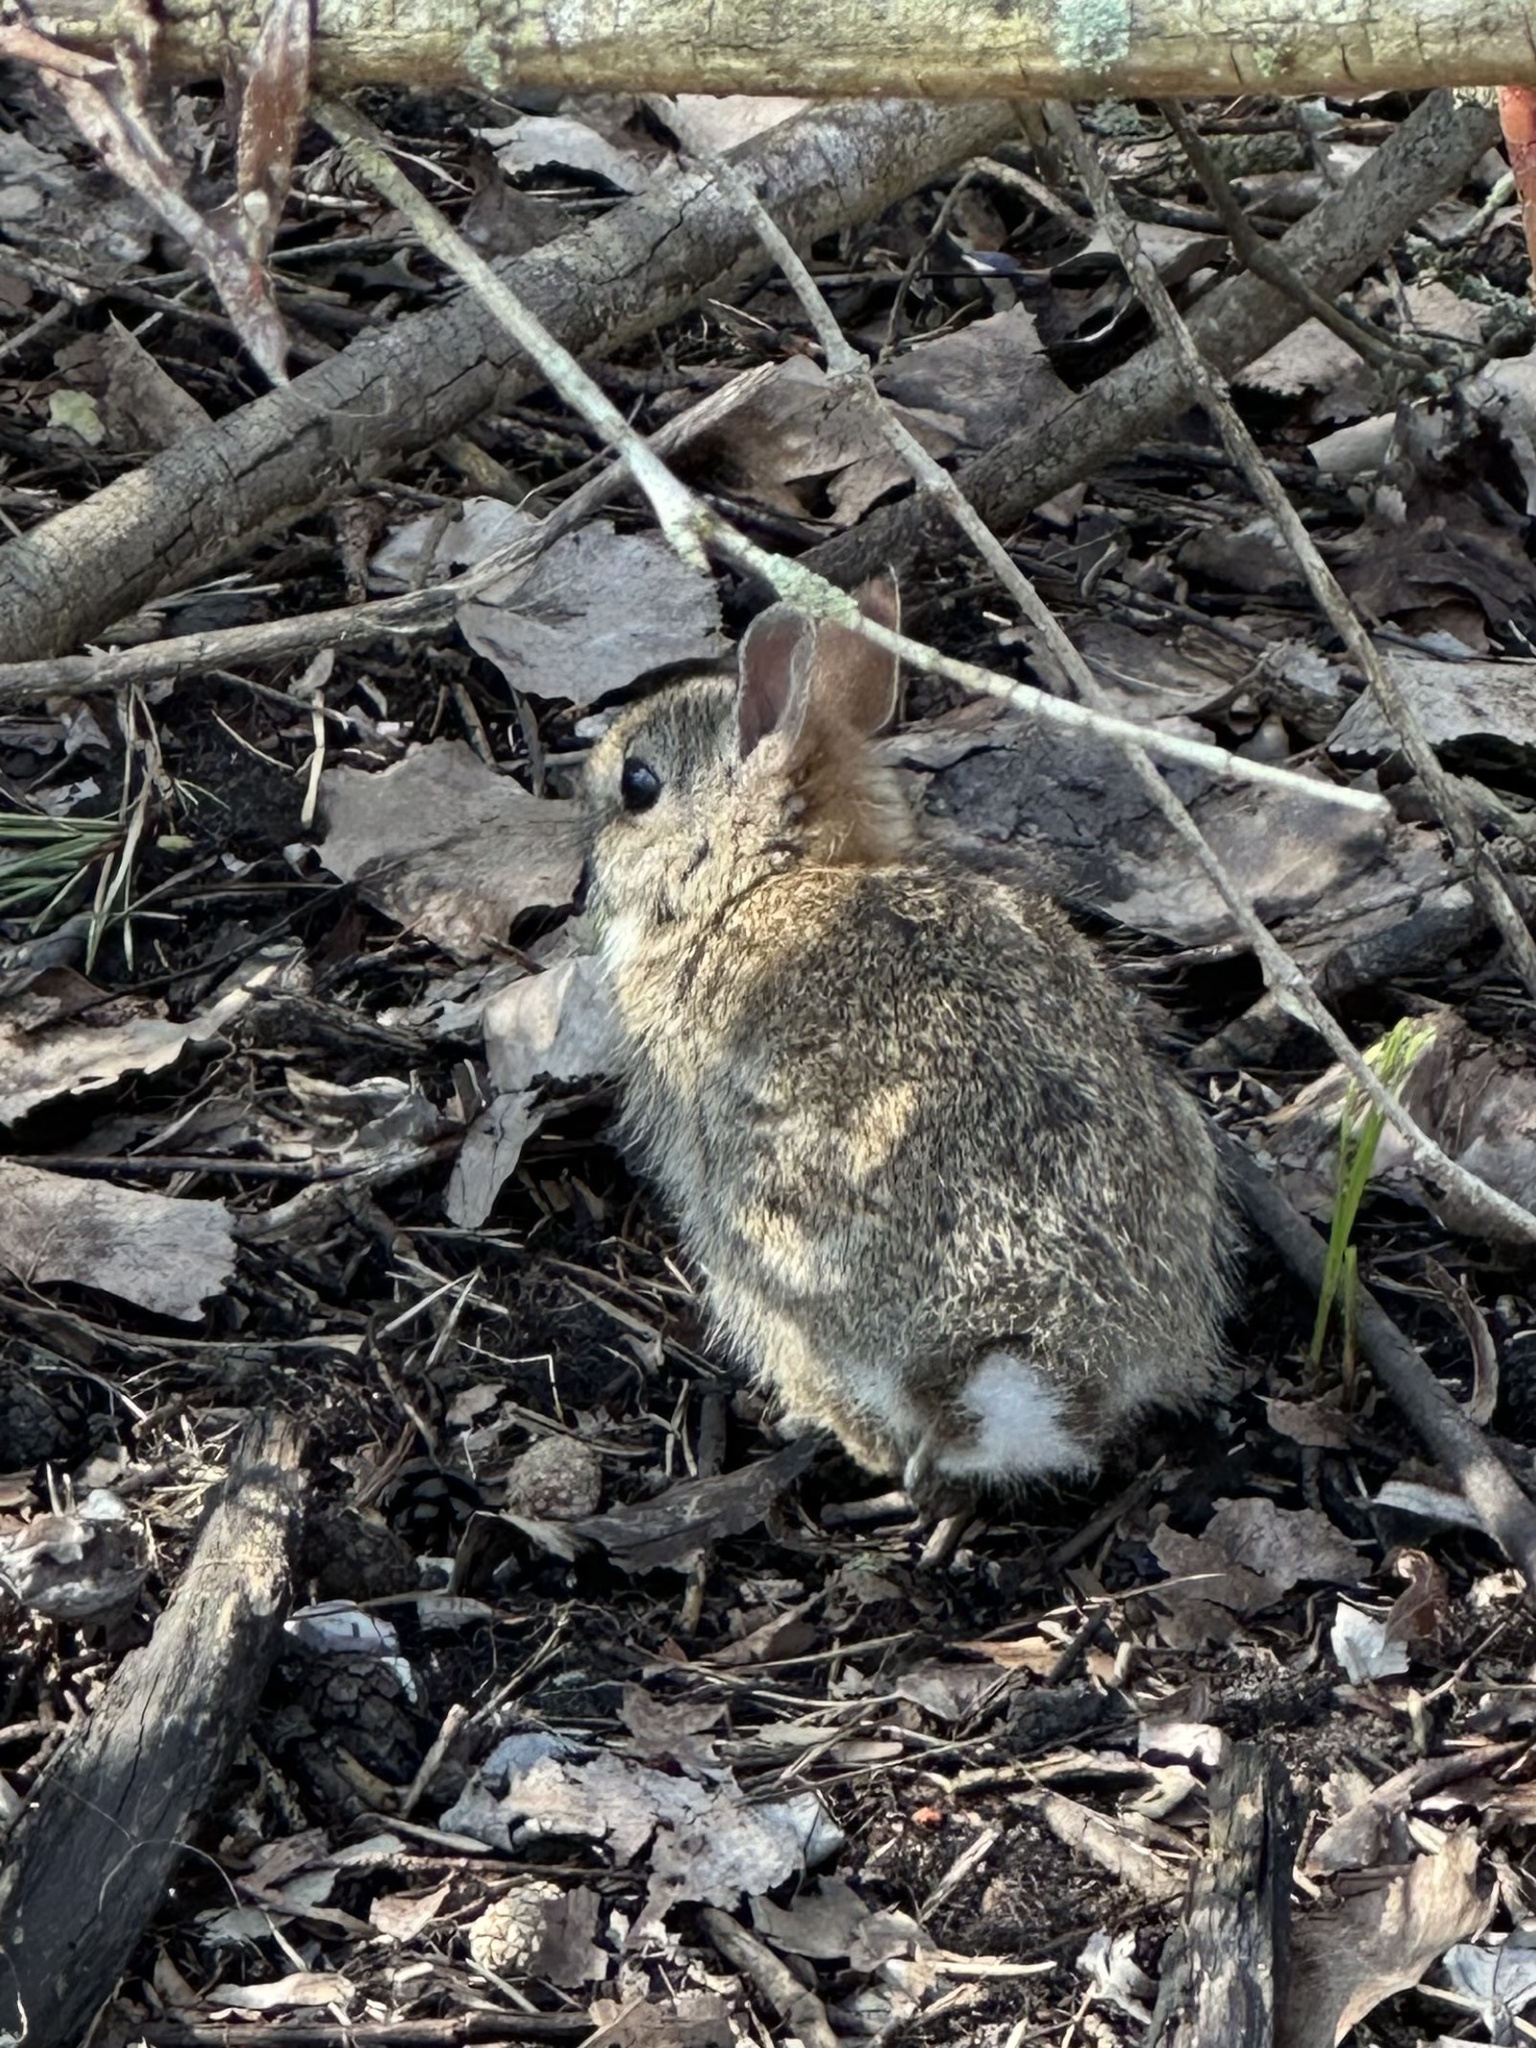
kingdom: Animalia
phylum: Chordata
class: Mammalia
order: Lagomorpha
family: Leporidae
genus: Sylvilagus
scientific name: Sylvilagus floridanus
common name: Eastern cottontail
